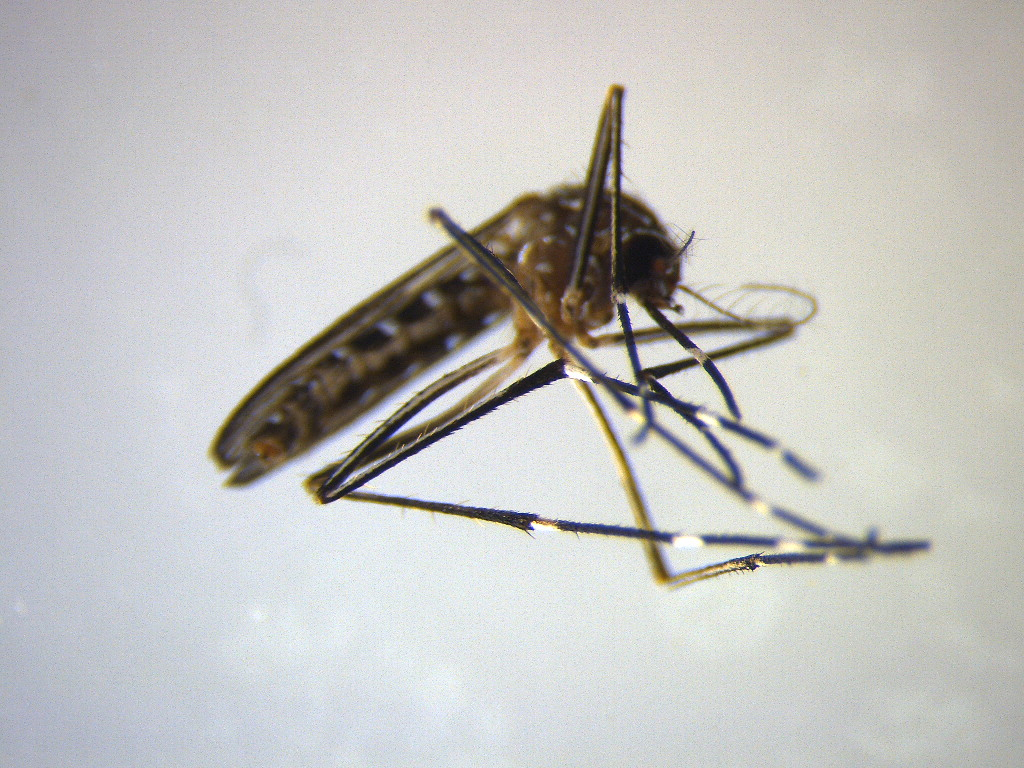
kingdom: Animalia
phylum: Arthropoda
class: Insecta
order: Diptera
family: Culicidae
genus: Aedes
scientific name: Aedes notoscriptus
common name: Australian backyard mosquito
